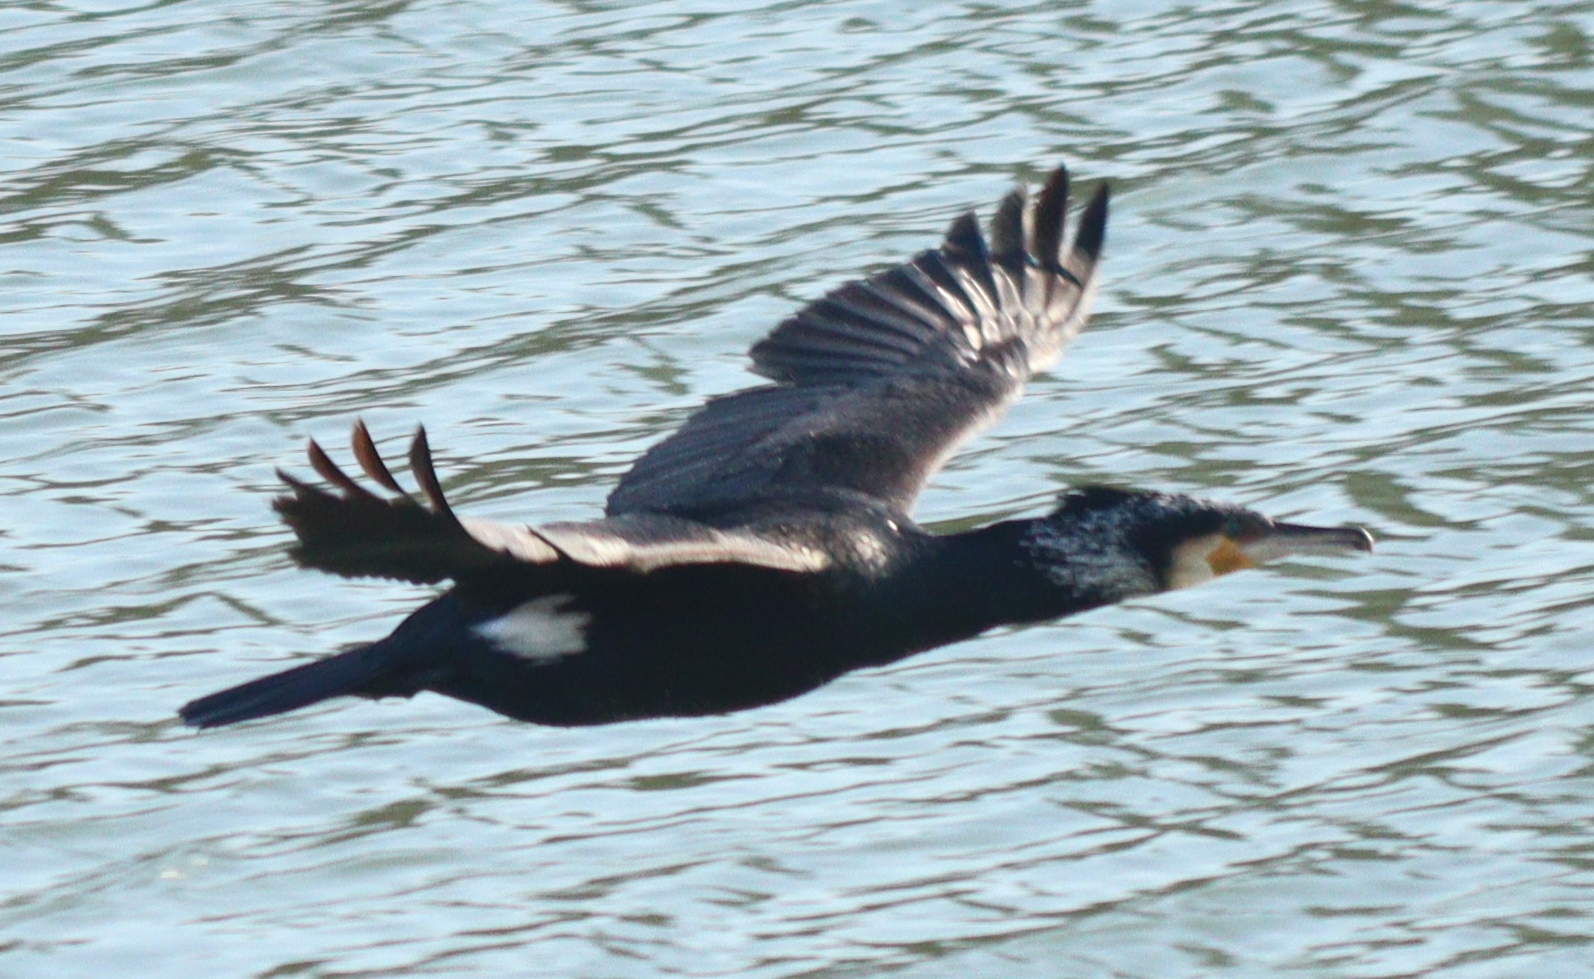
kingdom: Animalia
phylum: Chordata
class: Aves
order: Suliformes
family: Phalacrocoracidae
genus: Phalacrocorax
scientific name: Phalacrocorax carbo
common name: Great cormorant
